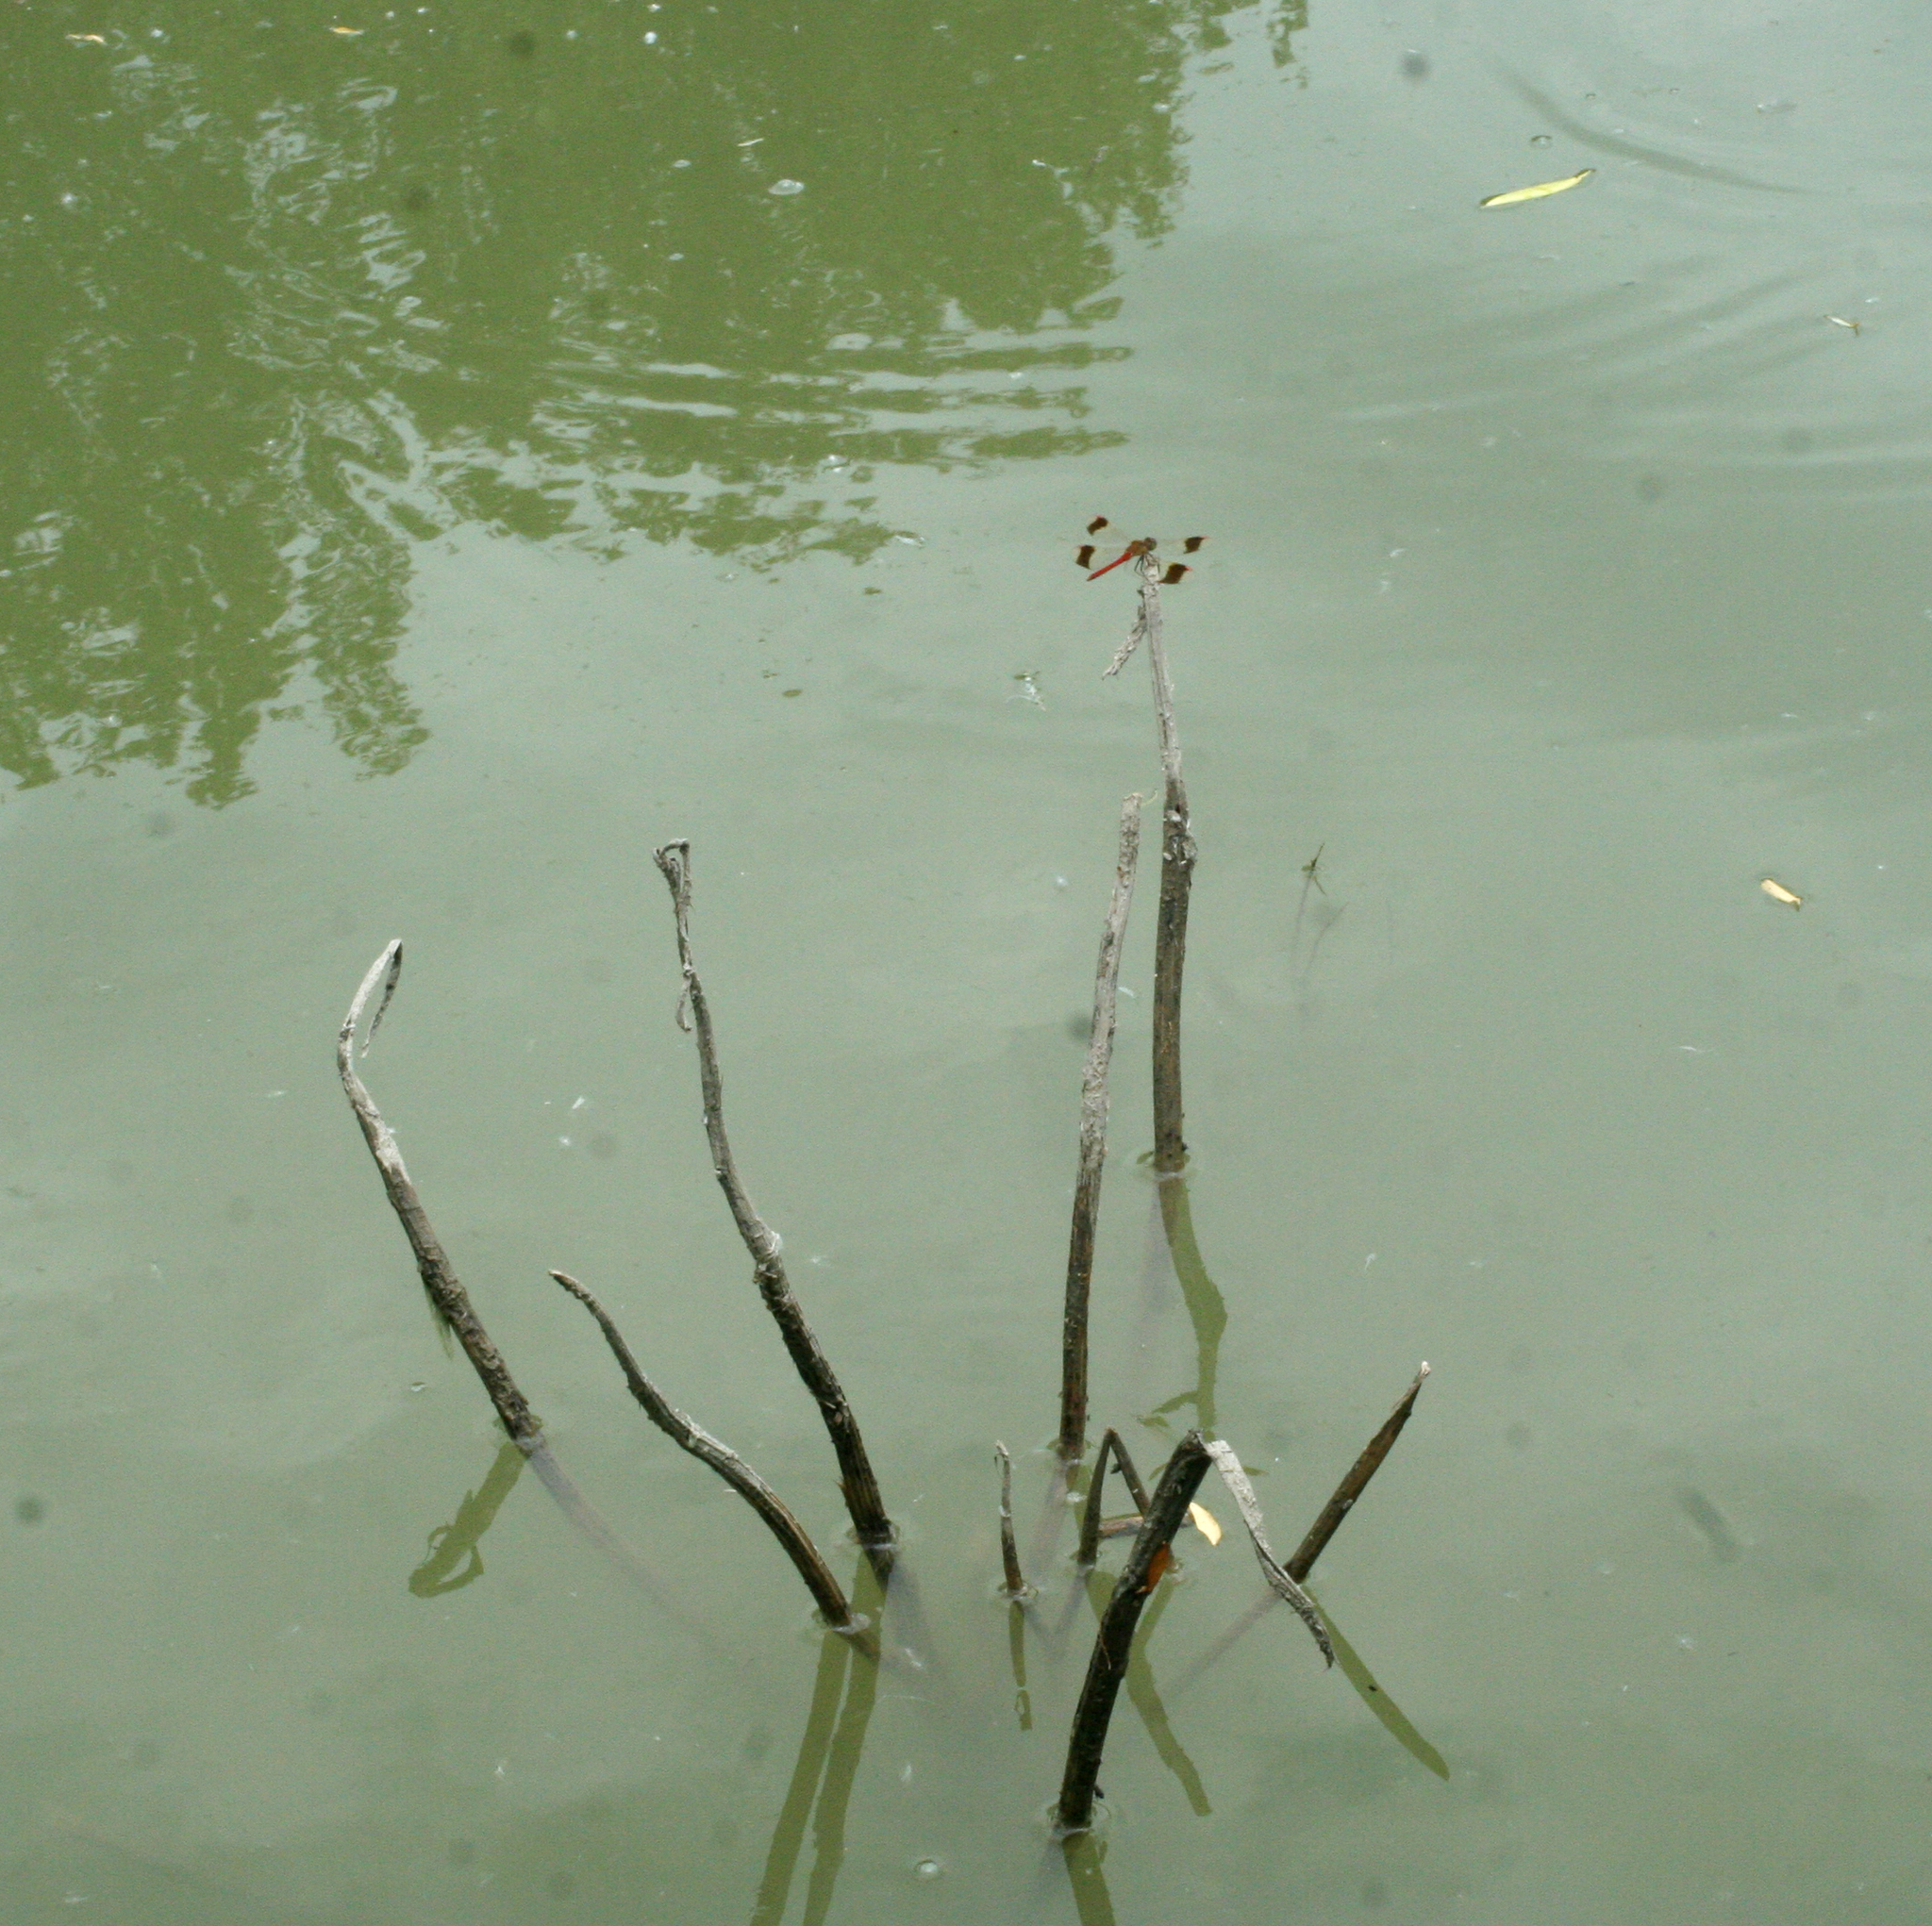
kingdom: Animalia
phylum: Arthropoda
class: Insecta
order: Odonata
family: Libellulidae
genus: Sympetrum
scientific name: Sympetrum pedemontanum
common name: Banded darter
